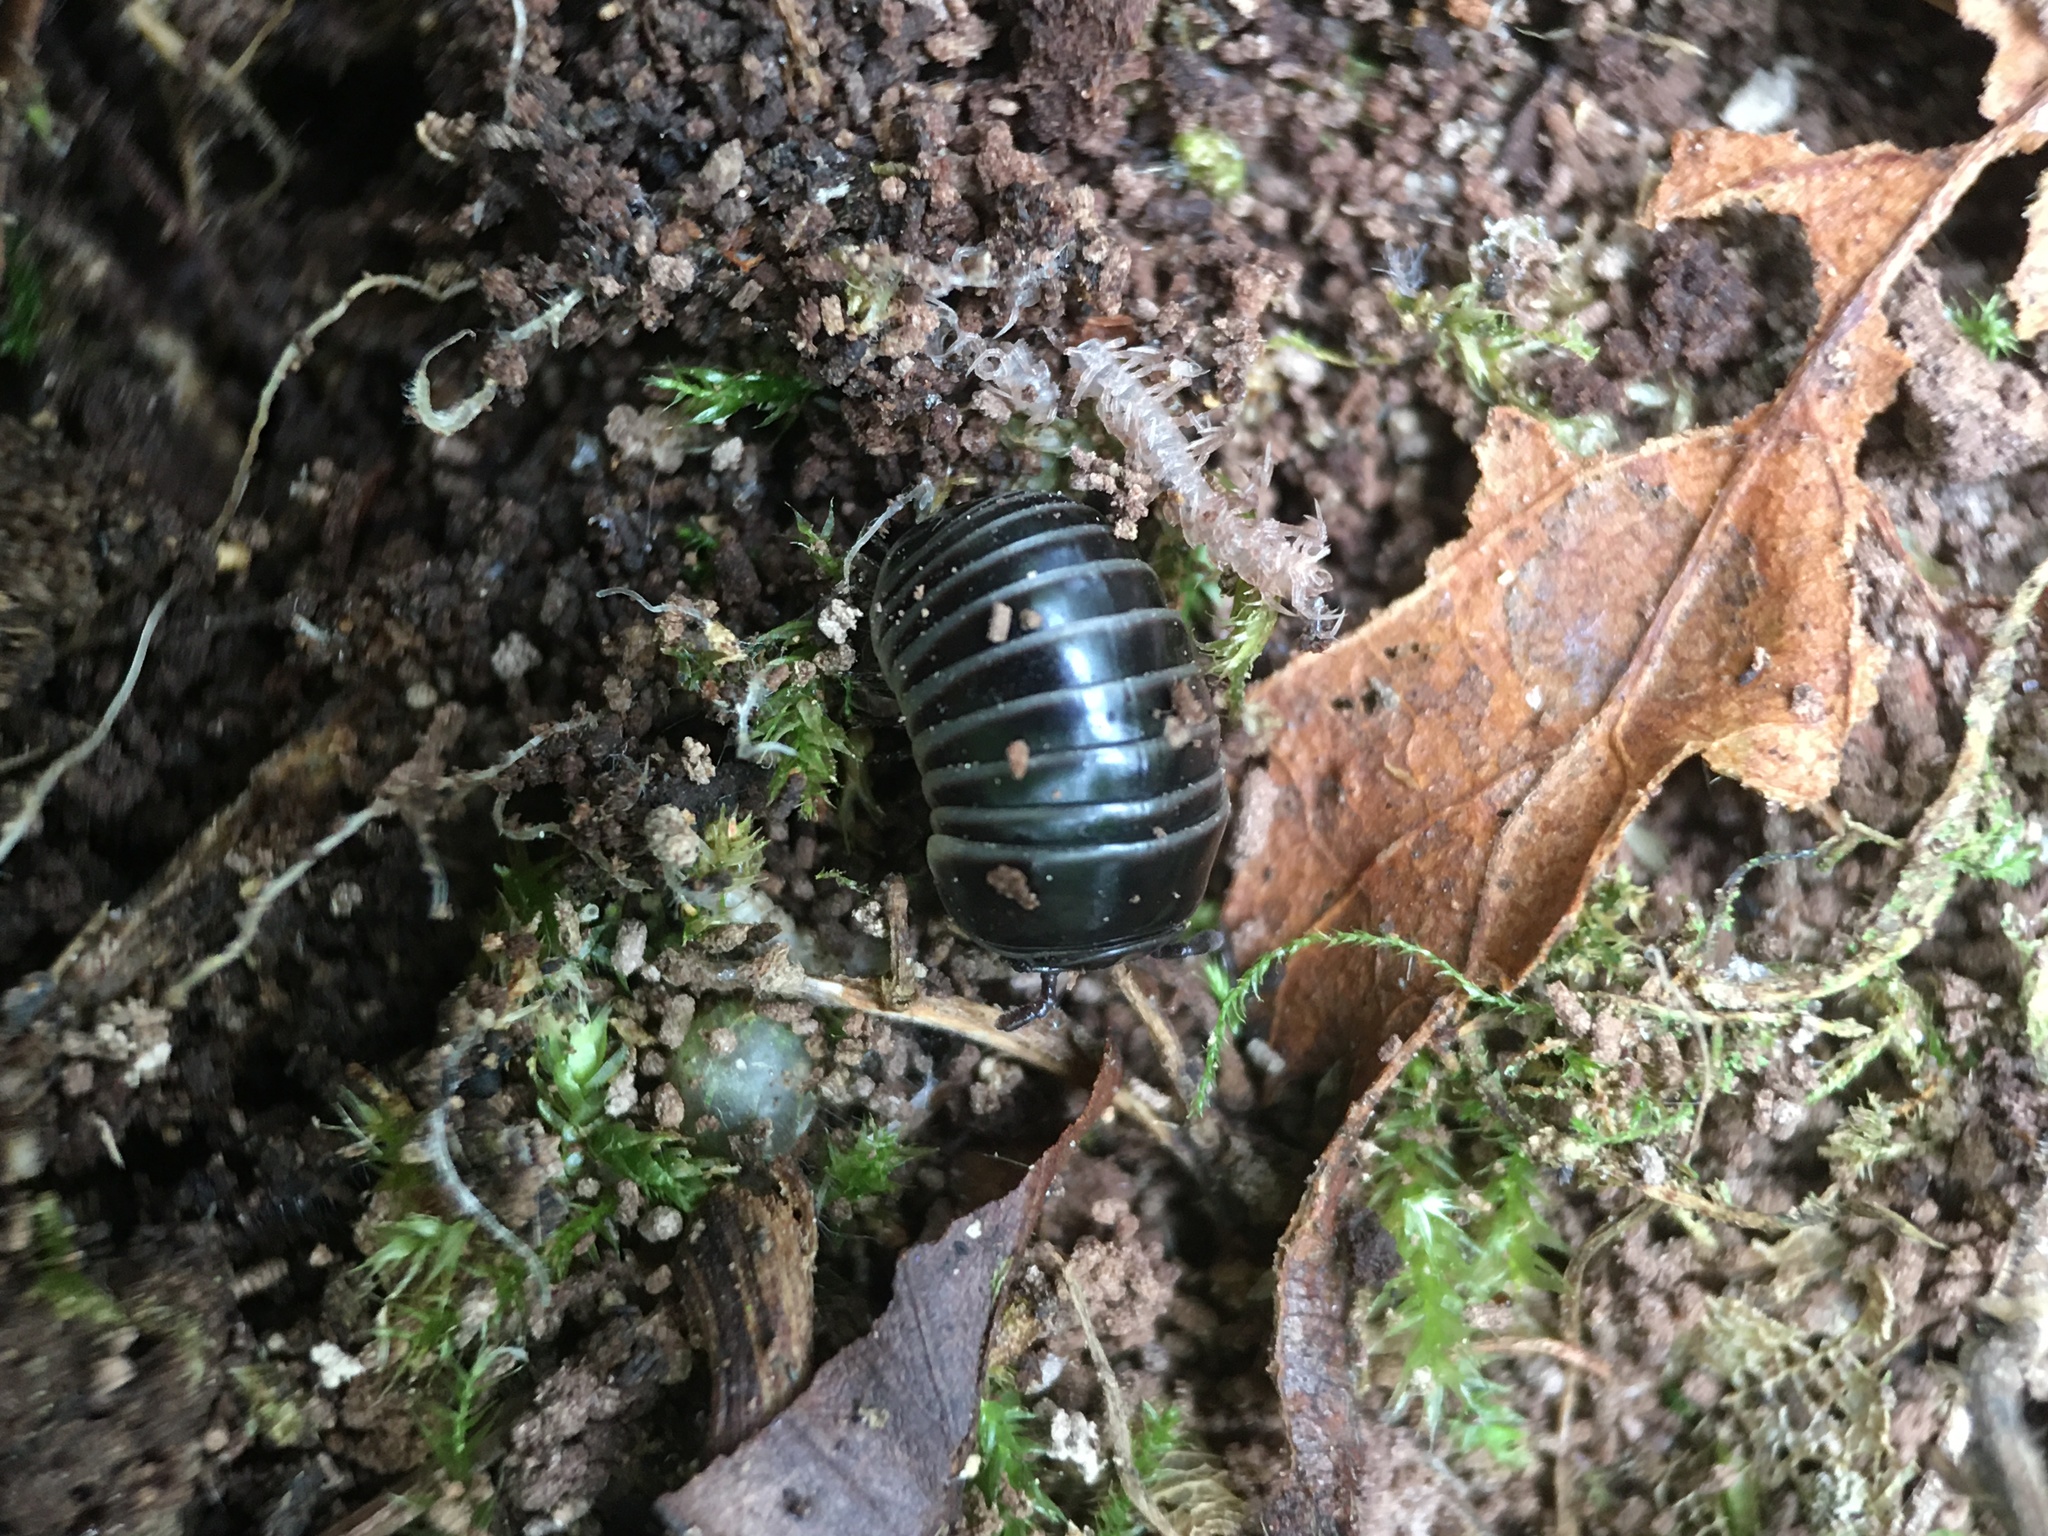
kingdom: Animalia
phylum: Arthropoda
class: Diplopoda
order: Glomerida
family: Glomeridae
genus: Glomeris
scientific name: Glomeris marginata
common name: Bordered pill millipede
